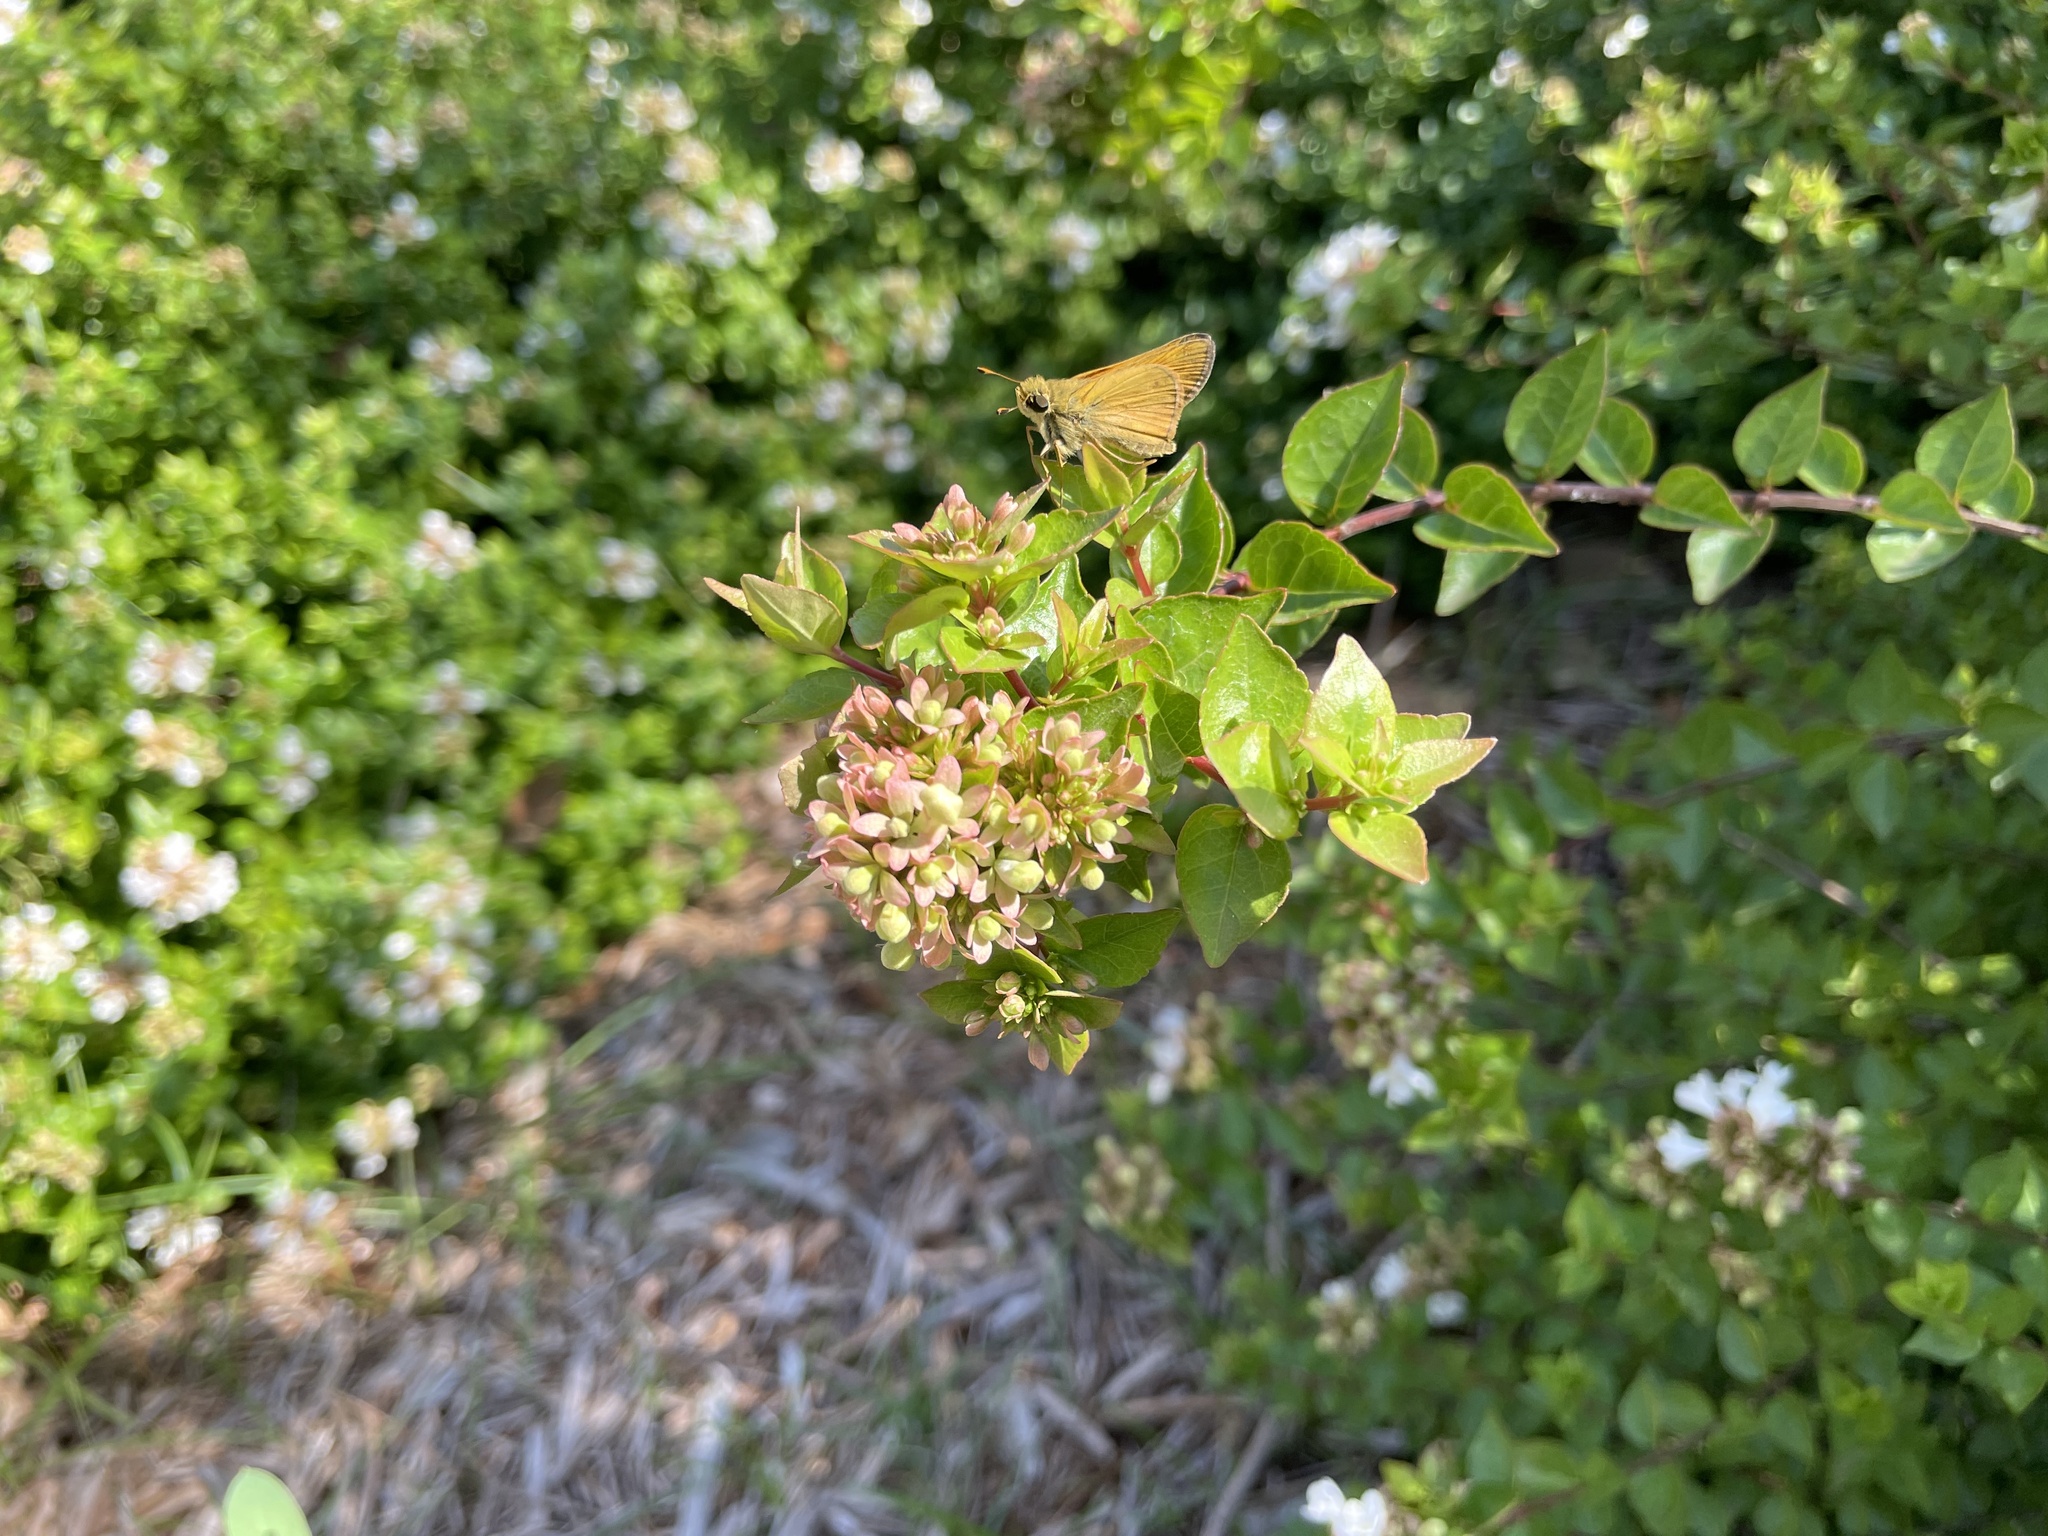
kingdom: Animalia
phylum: Arthropoda
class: Insecta
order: Lepidoptera
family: Hesperiidae
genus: Atalopedes
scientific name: Atalopedes
